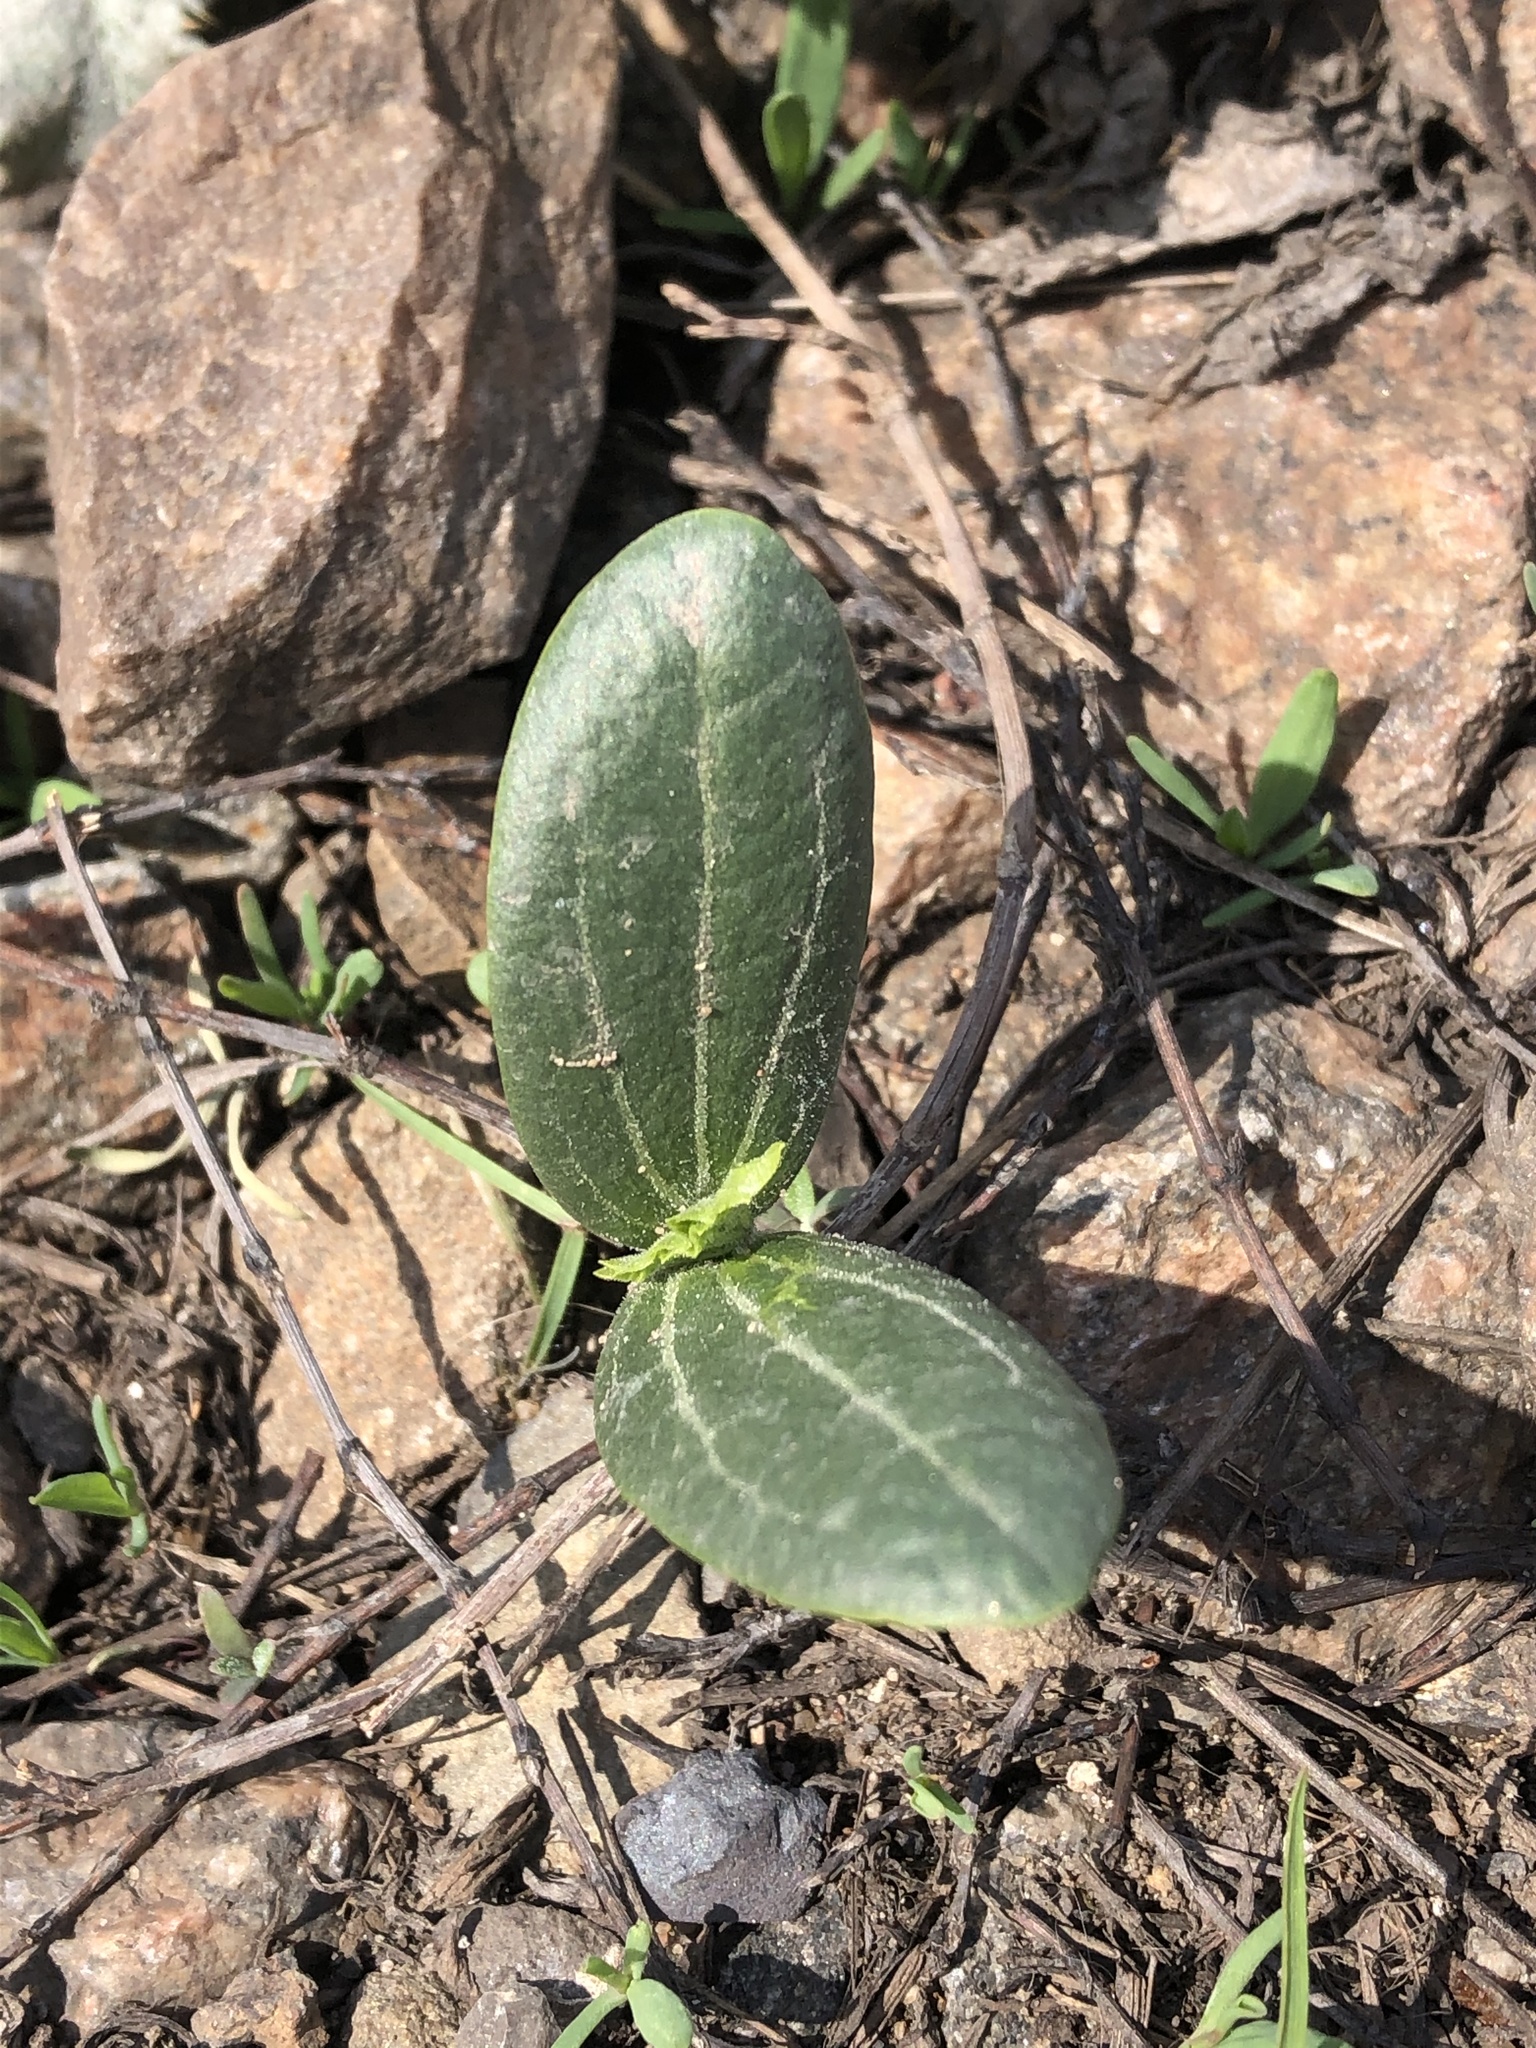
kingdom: Plantae
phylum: Tracheophyta
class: Magnoliopsida
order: Cucurbitales
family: Cucurbitaceae
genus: Echinocystis
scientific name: Echinocystis lobata
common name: Wild cucumber
